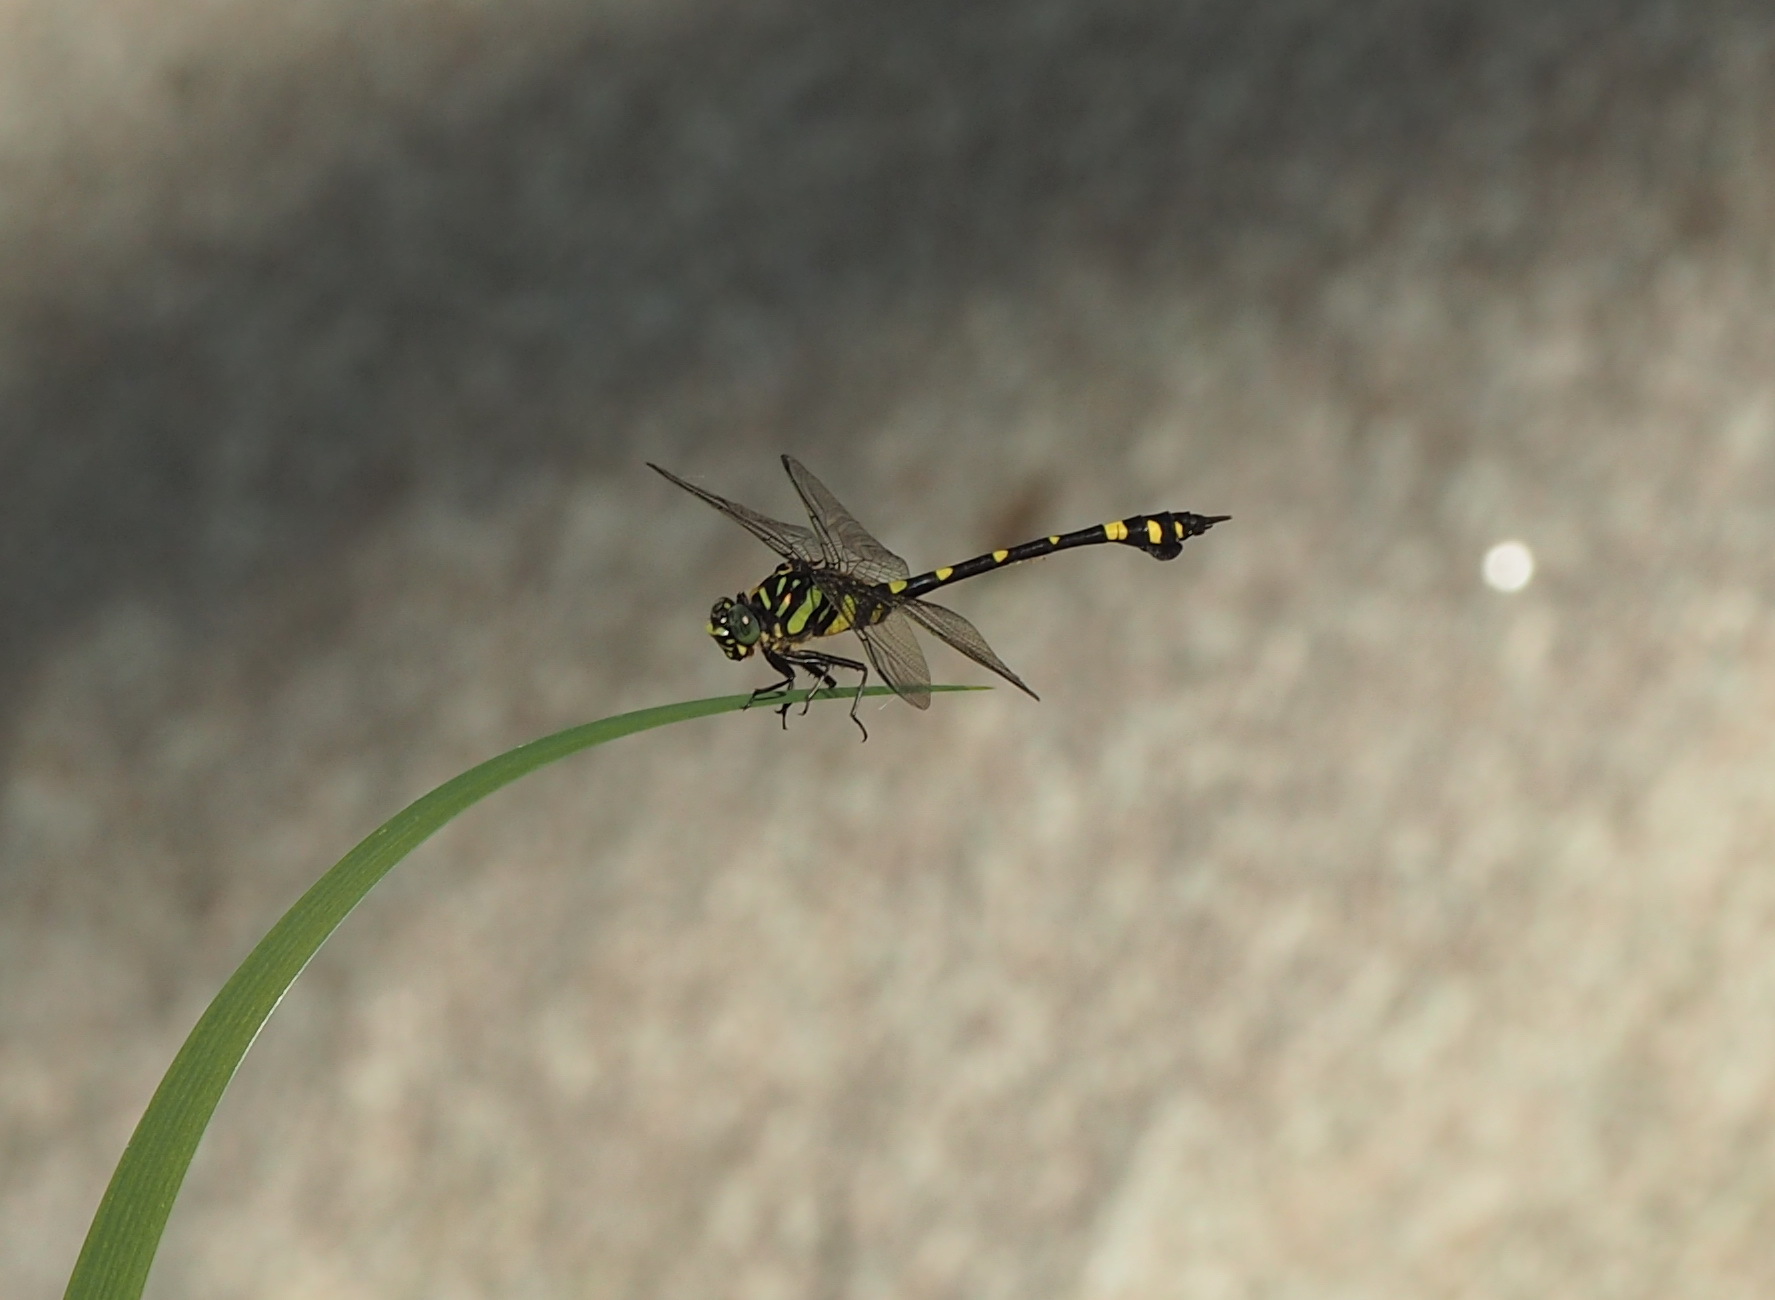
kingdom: Animalia
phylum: Arthropoda
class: Insecta
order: Odonata
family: Gomphidae
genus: Ictinogomphus
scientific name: Ictinogomphus rapax
